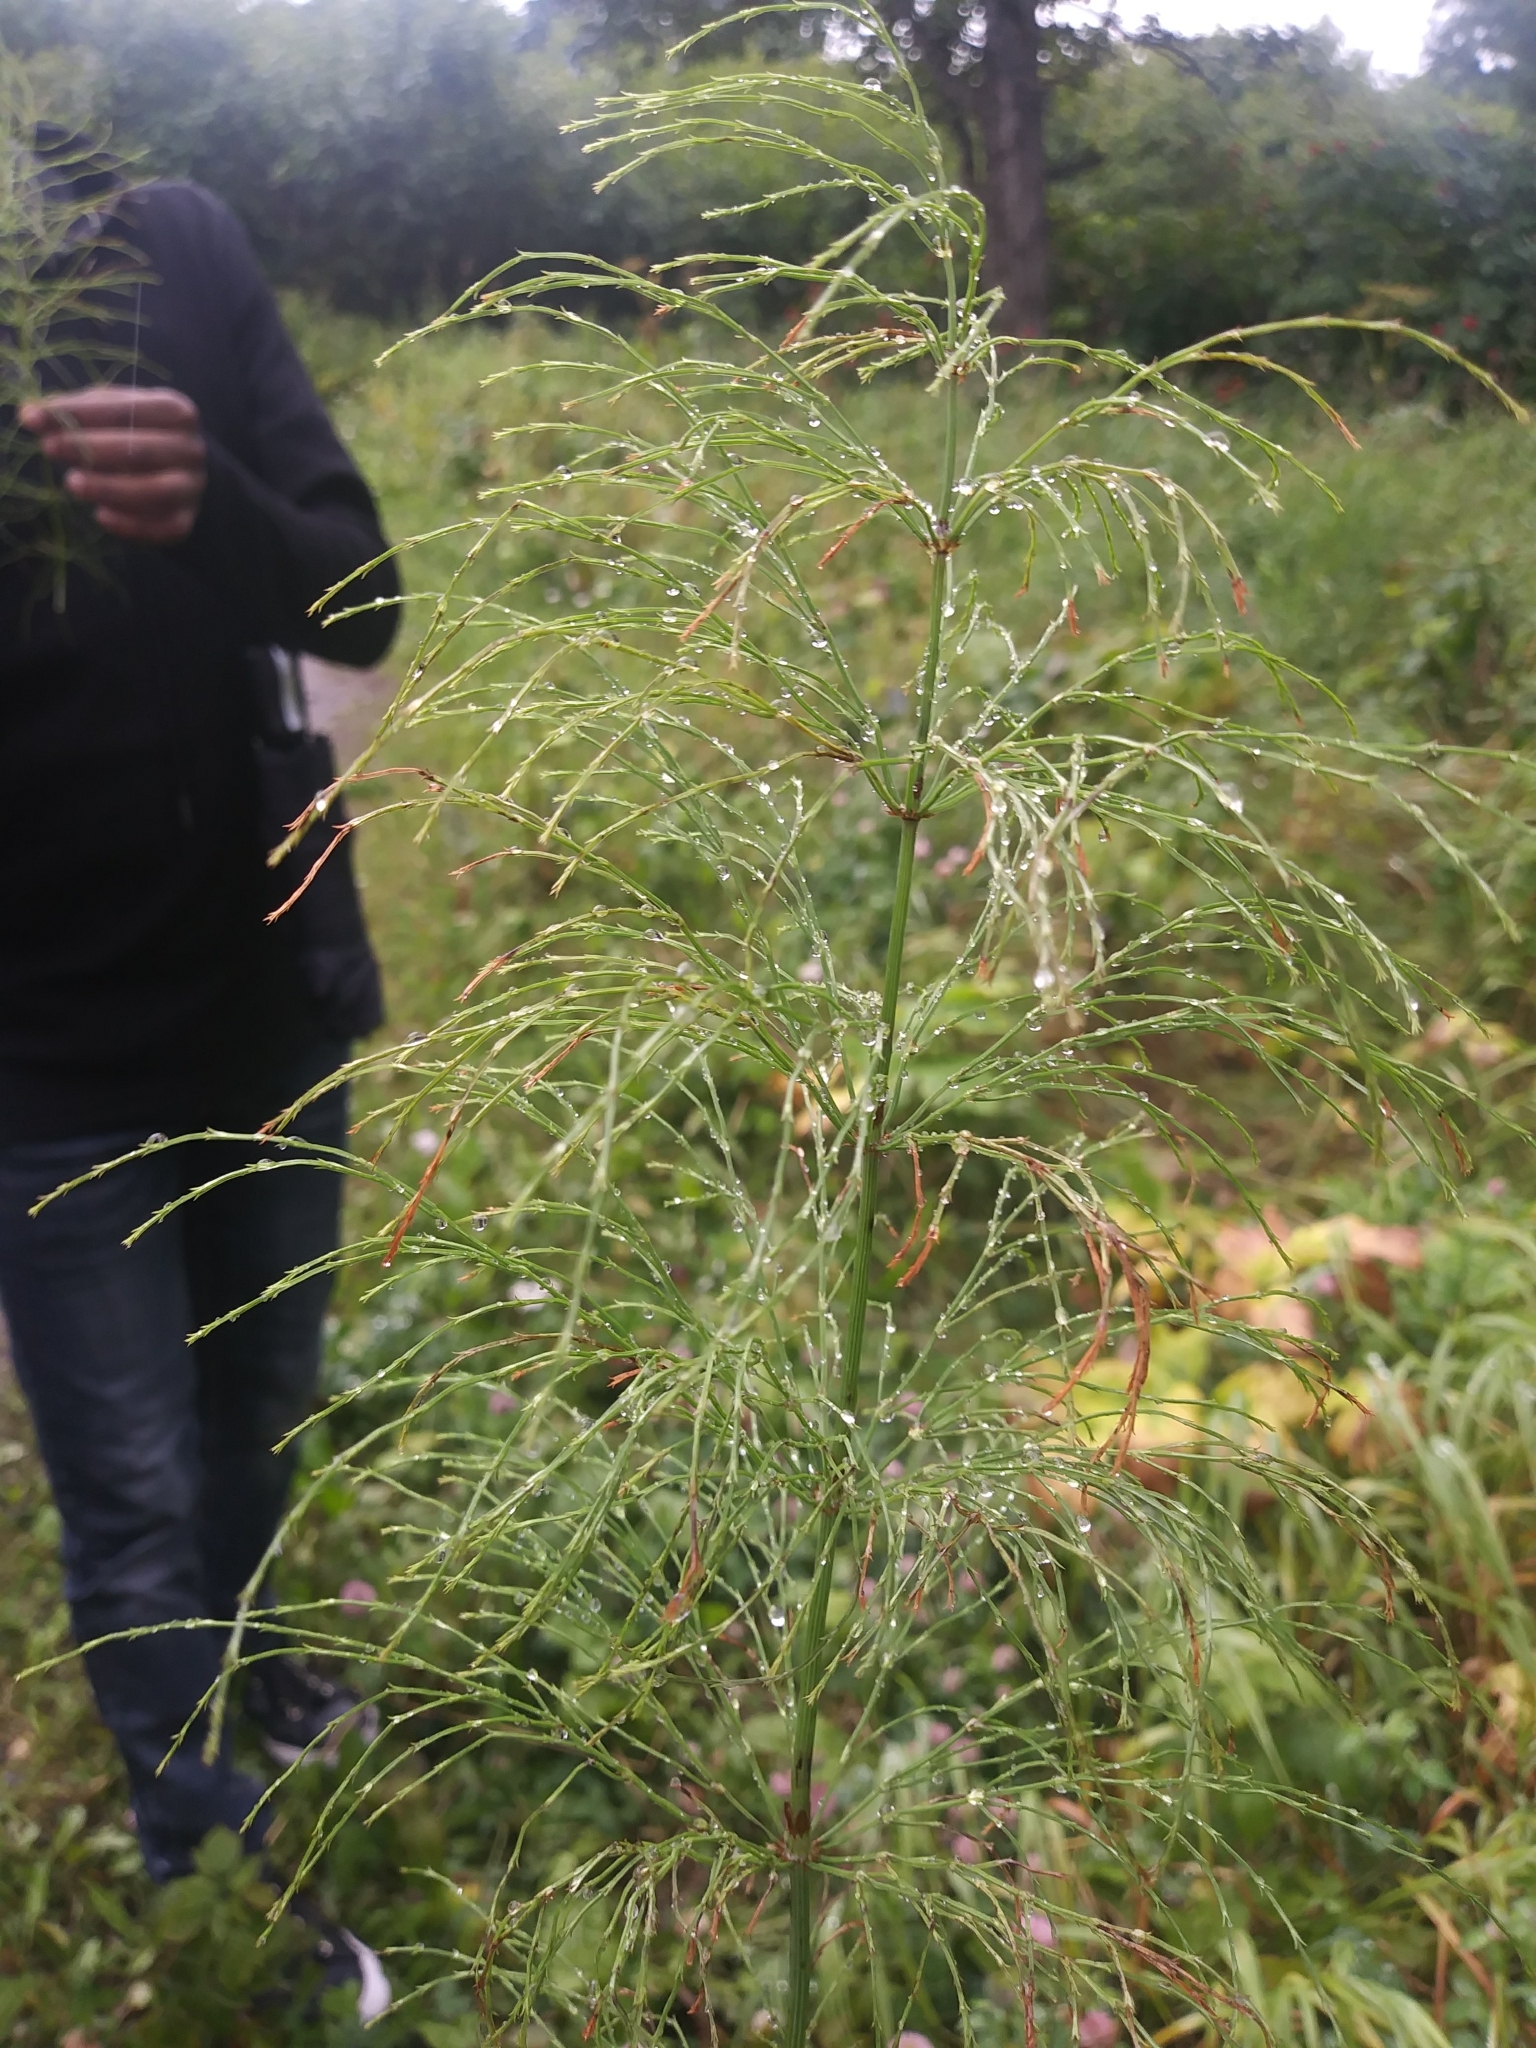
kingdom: Plantae
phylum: Tracheophyta
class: Polypodiopsida
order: Equisetales
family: Equisetaceae
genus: Equisetum
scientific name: Equisetum sylvaticum
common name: Wood horsetail
